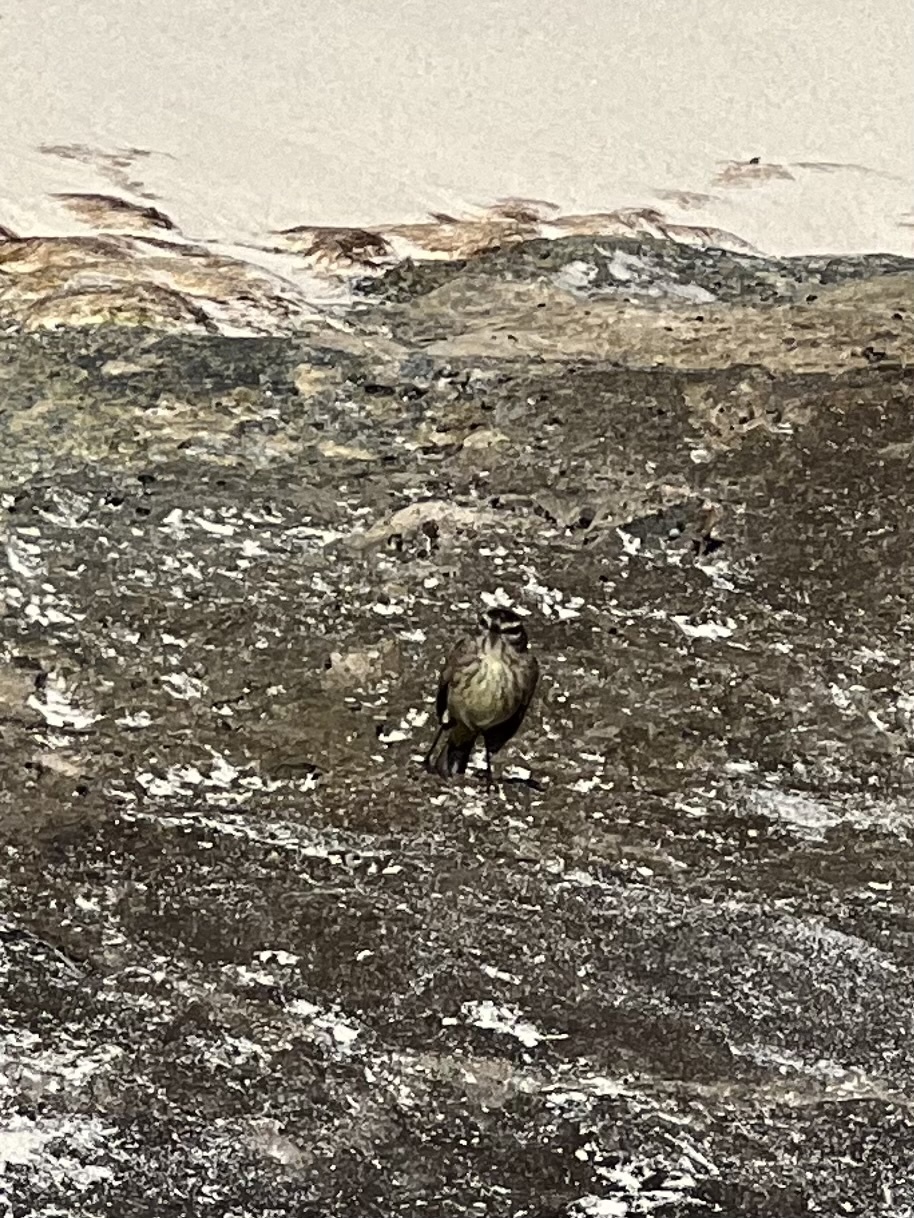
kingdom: Animalia
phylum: Chordata
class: Aves
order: Passeriformes
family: Parulidae
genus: Setophaga
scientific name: Setophaga palmarum
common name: Palm warbler
